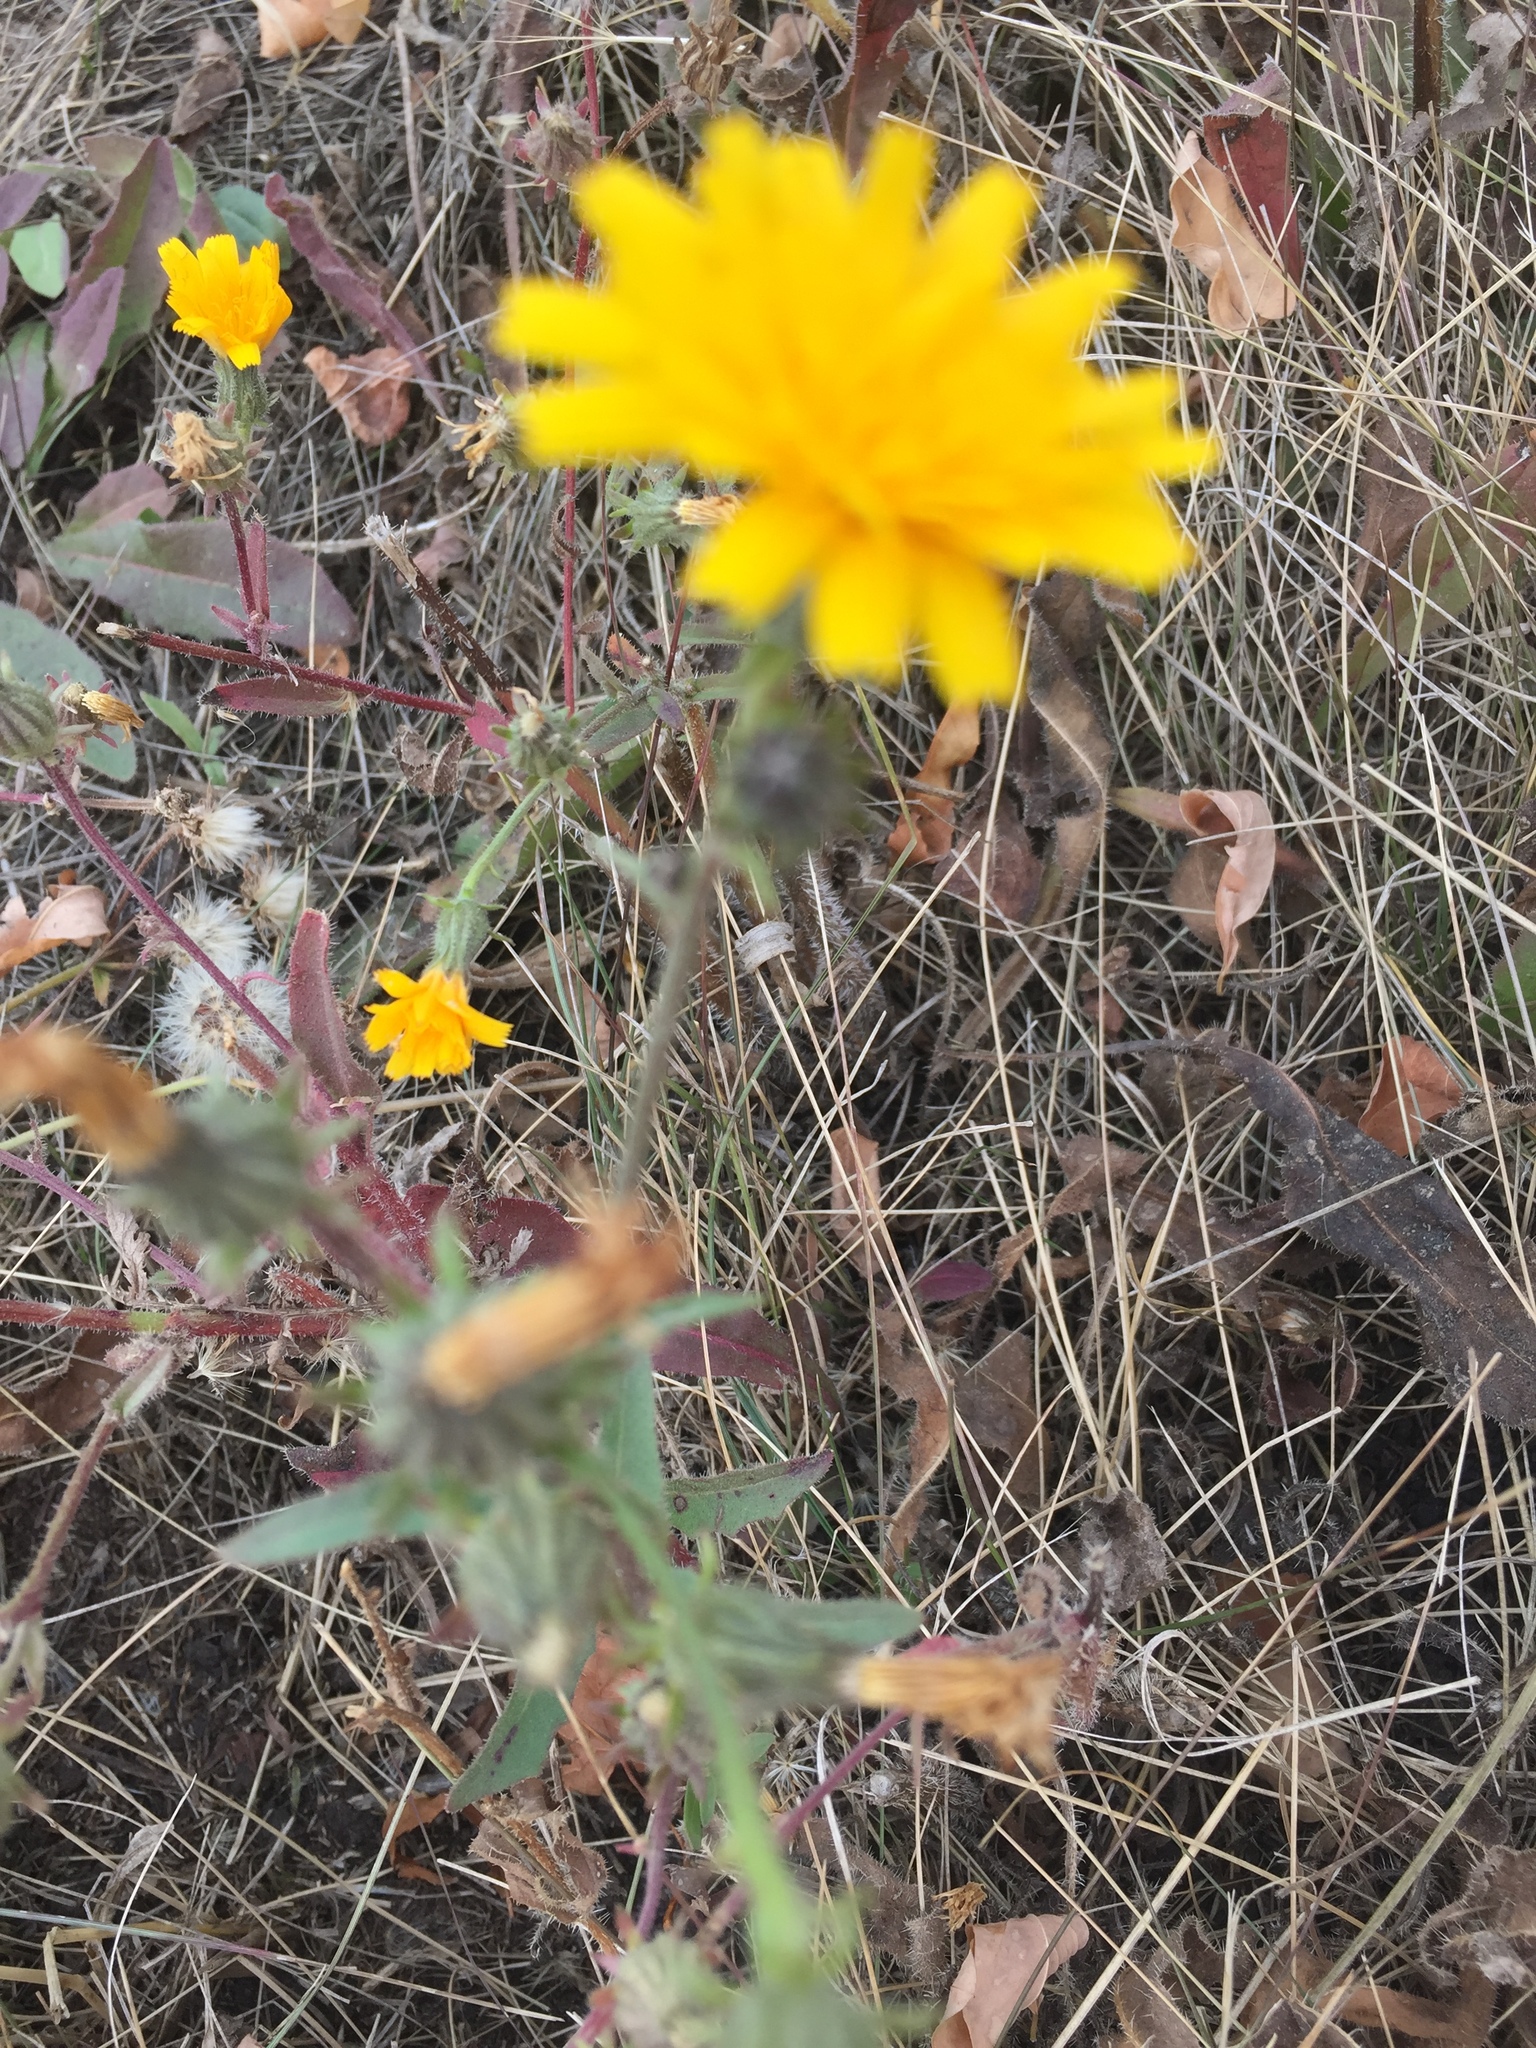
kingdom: Plantae
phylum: Tracheophyta
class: Magnoliopsida
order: Asterales
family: Asteraceae
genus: Picris
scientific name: Picris hieracioides
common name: Hawkweed oxtongue
